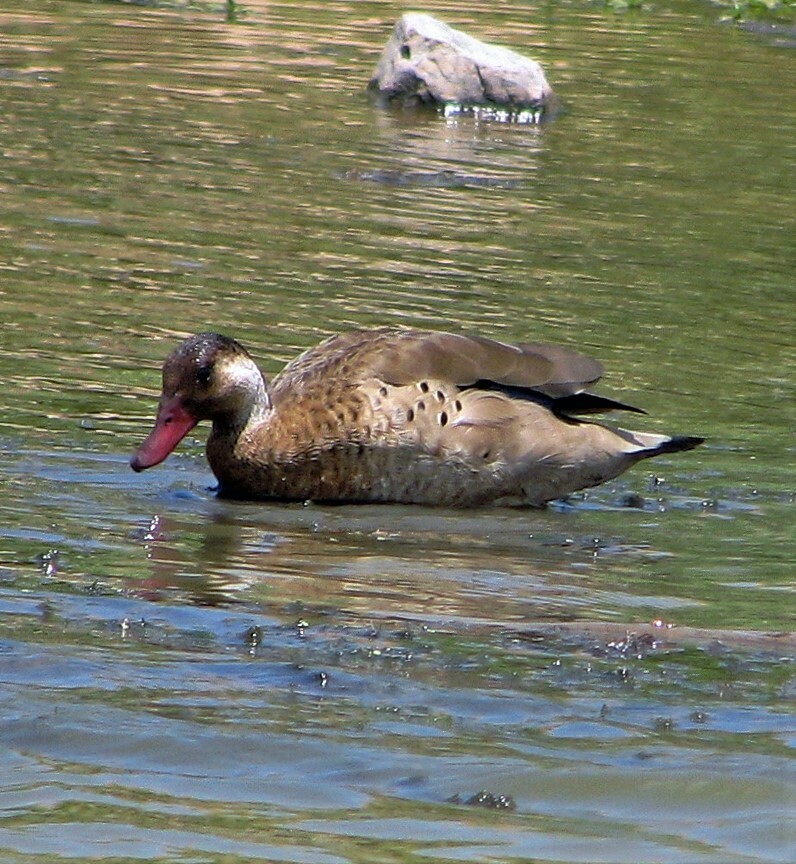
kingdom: Animalia
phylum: Chordata
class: Aves
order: Anseriformes
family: Anatidae
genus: Amazonetta
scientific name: Amazonetta brasiliensis
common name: Brazilian teal
